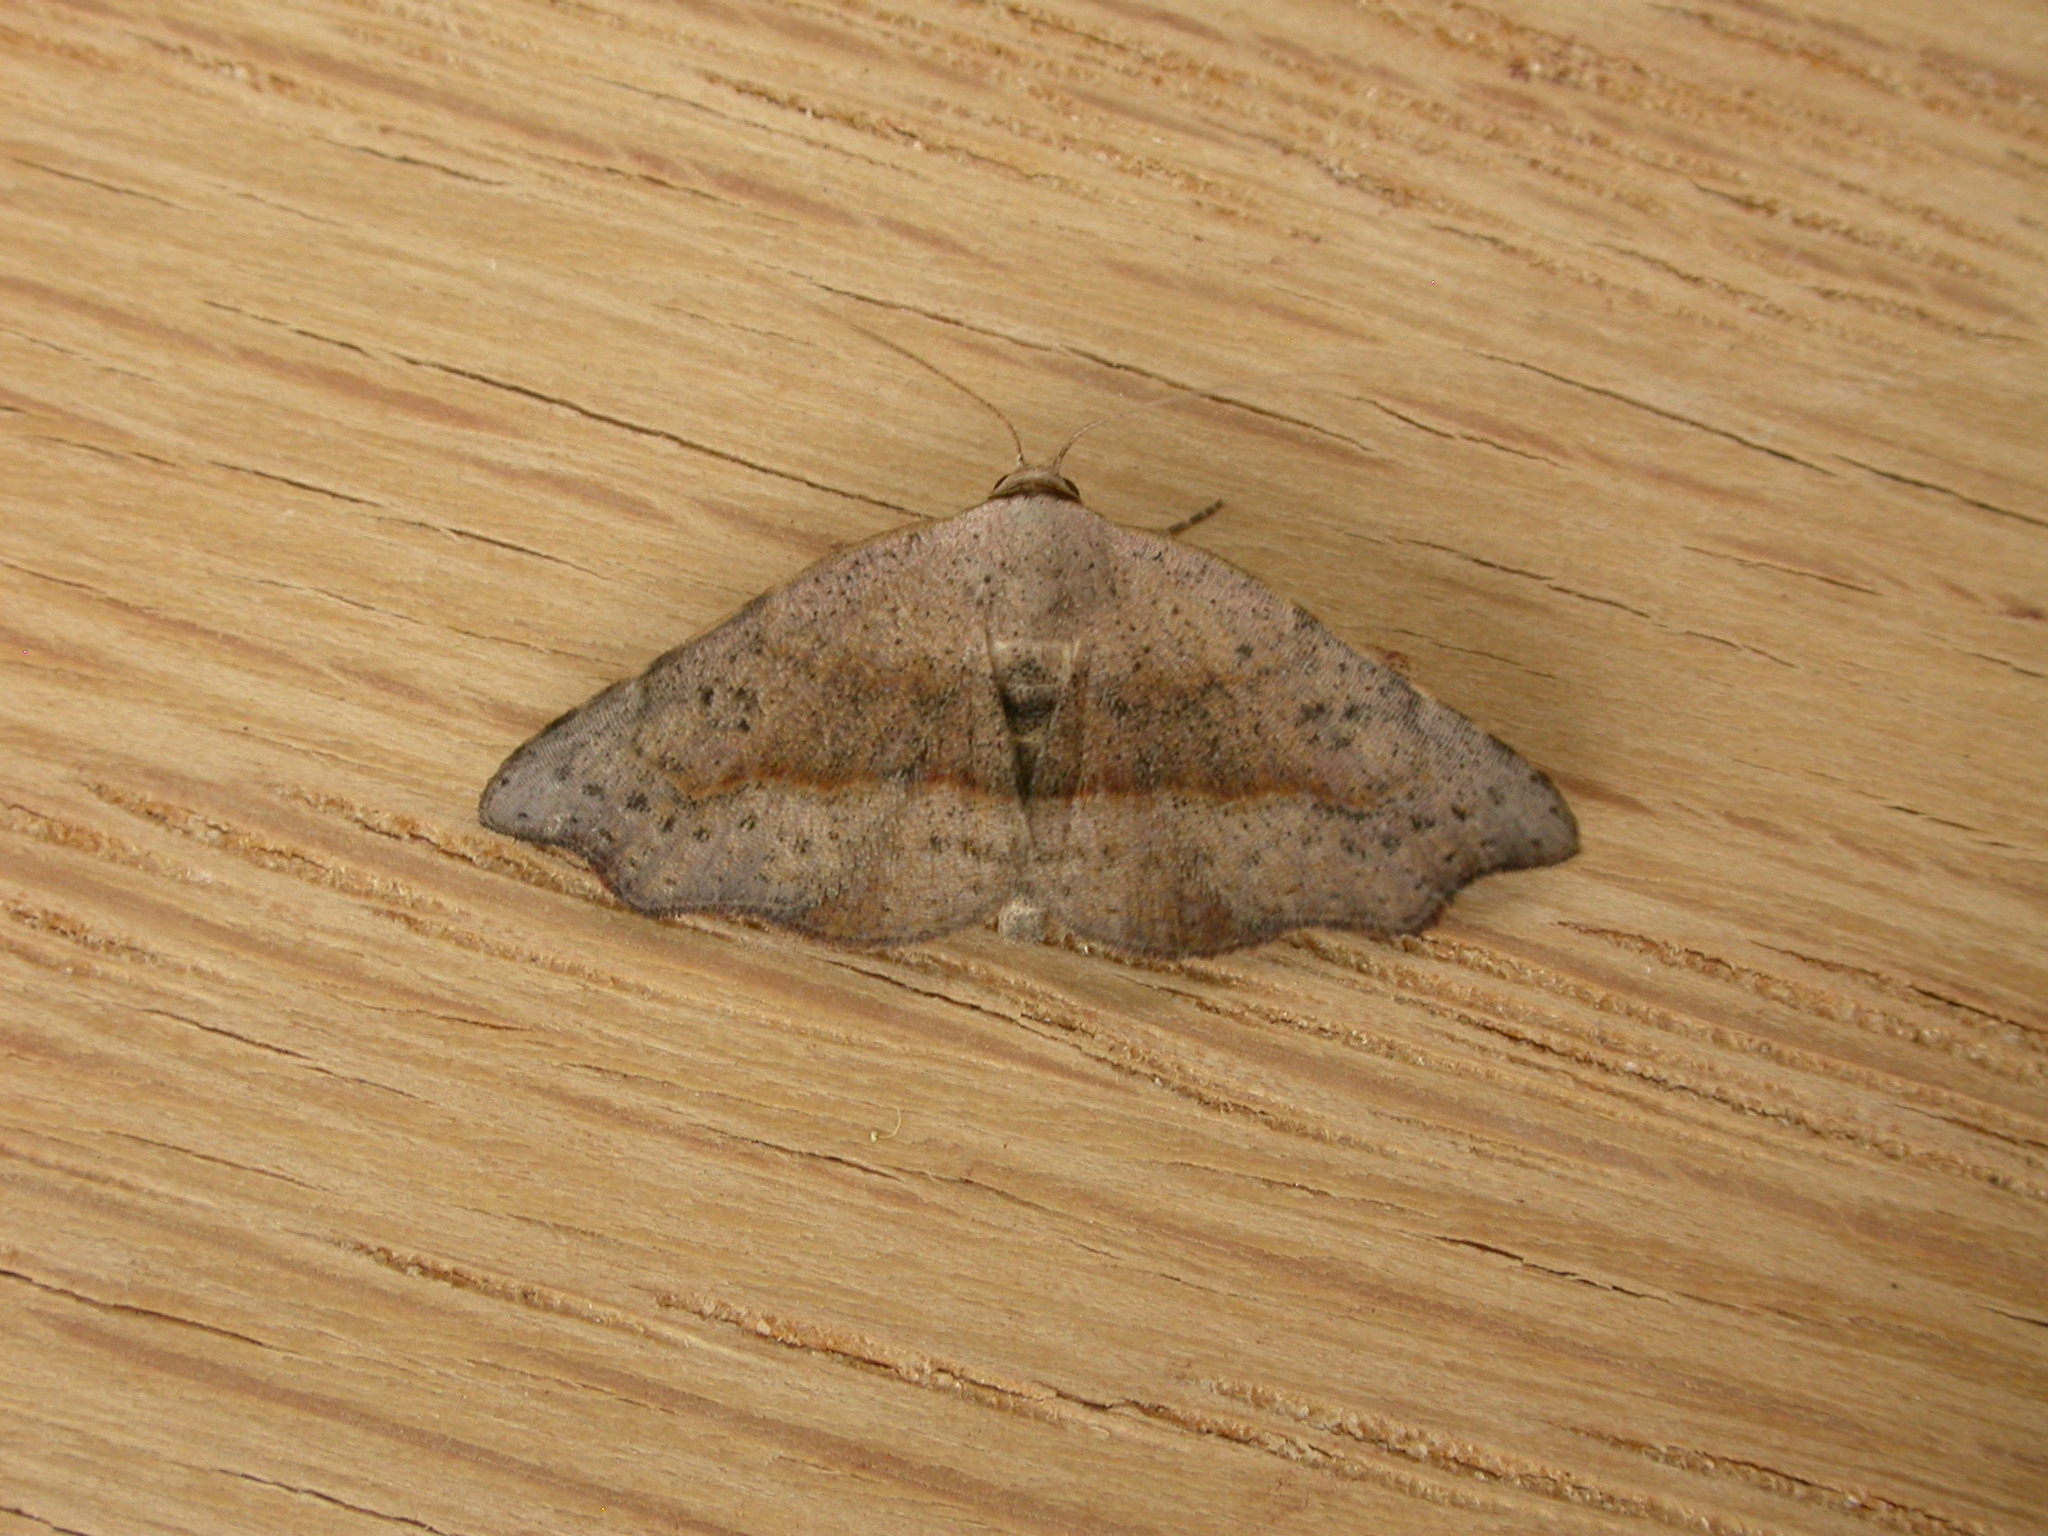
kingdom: Animalia
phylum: Arthropoda
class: Insecta
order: Lepidoptera
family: Erebidae
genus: Laspeyria
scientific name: Laspeyria concavata
